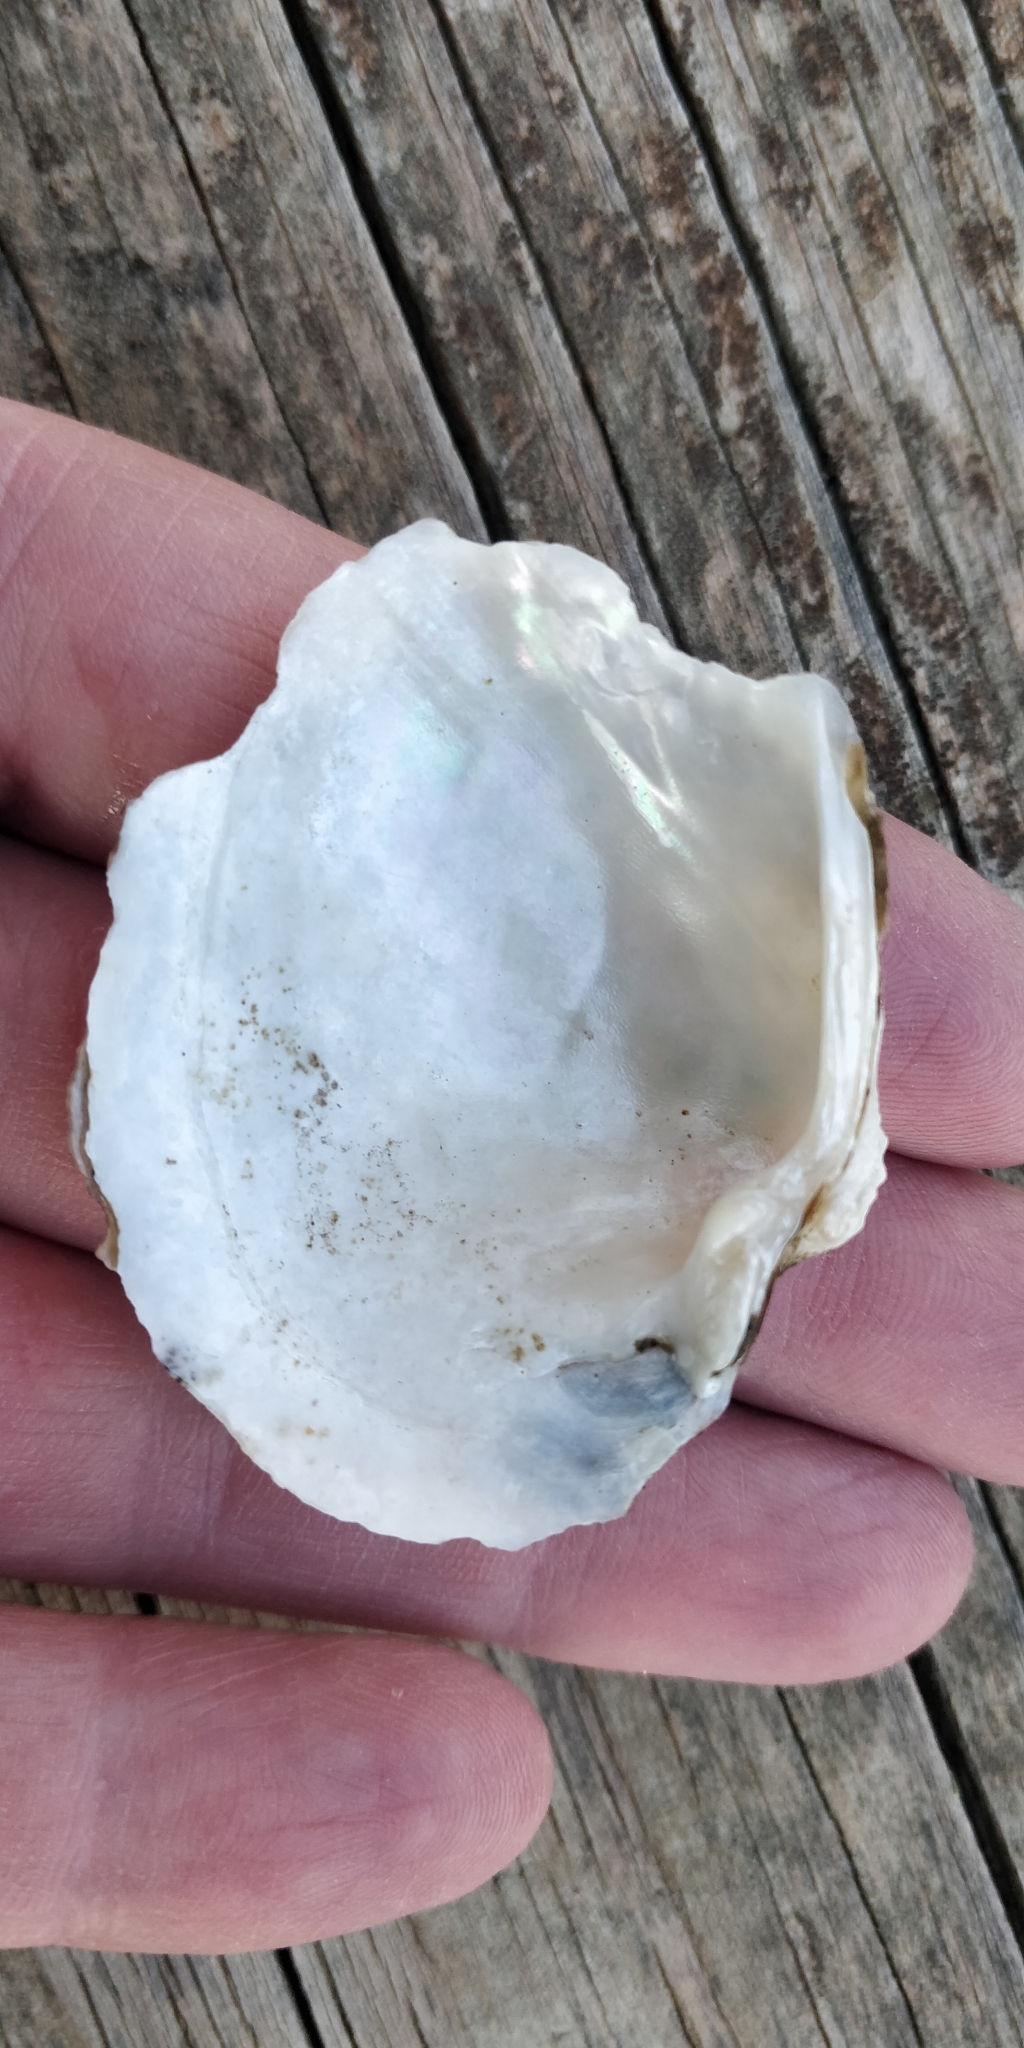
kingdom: Animalia
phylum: Mollusca
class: Bivalvia
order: Unionida
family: Unionidae
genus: Arcidens
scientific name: Arcidens confragosus
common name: Rock pocketbook
